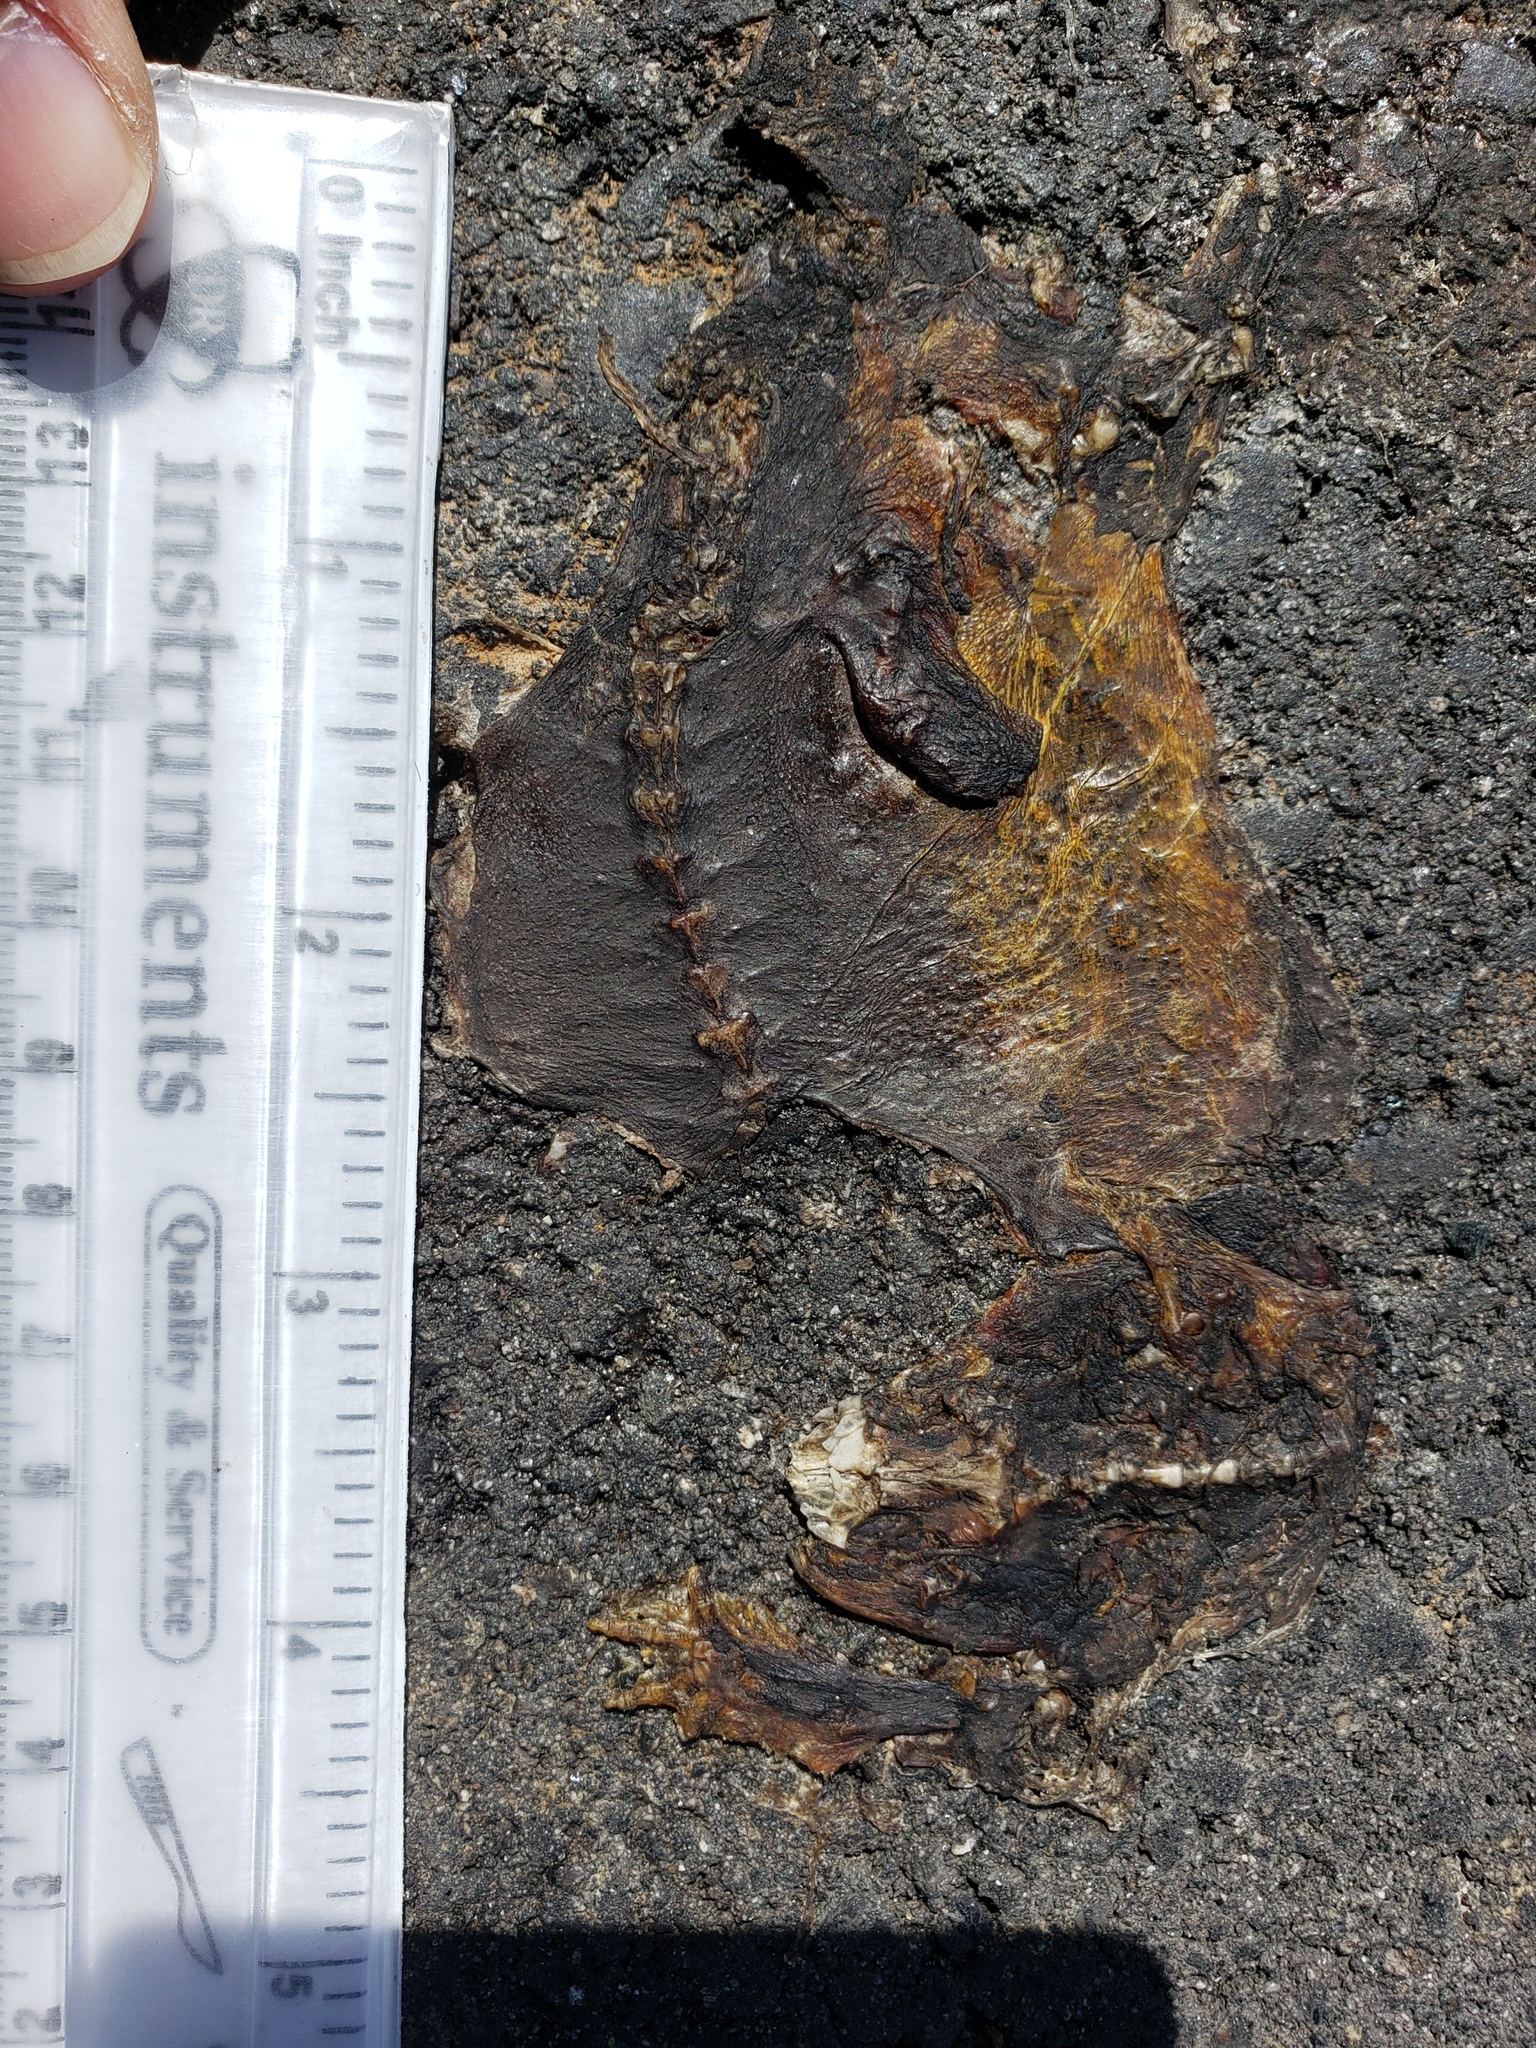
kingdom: Animalia
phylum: Chordata
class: Amphibia
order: Caudata
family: Salamandridae
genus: Taricha
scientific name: Taricha
